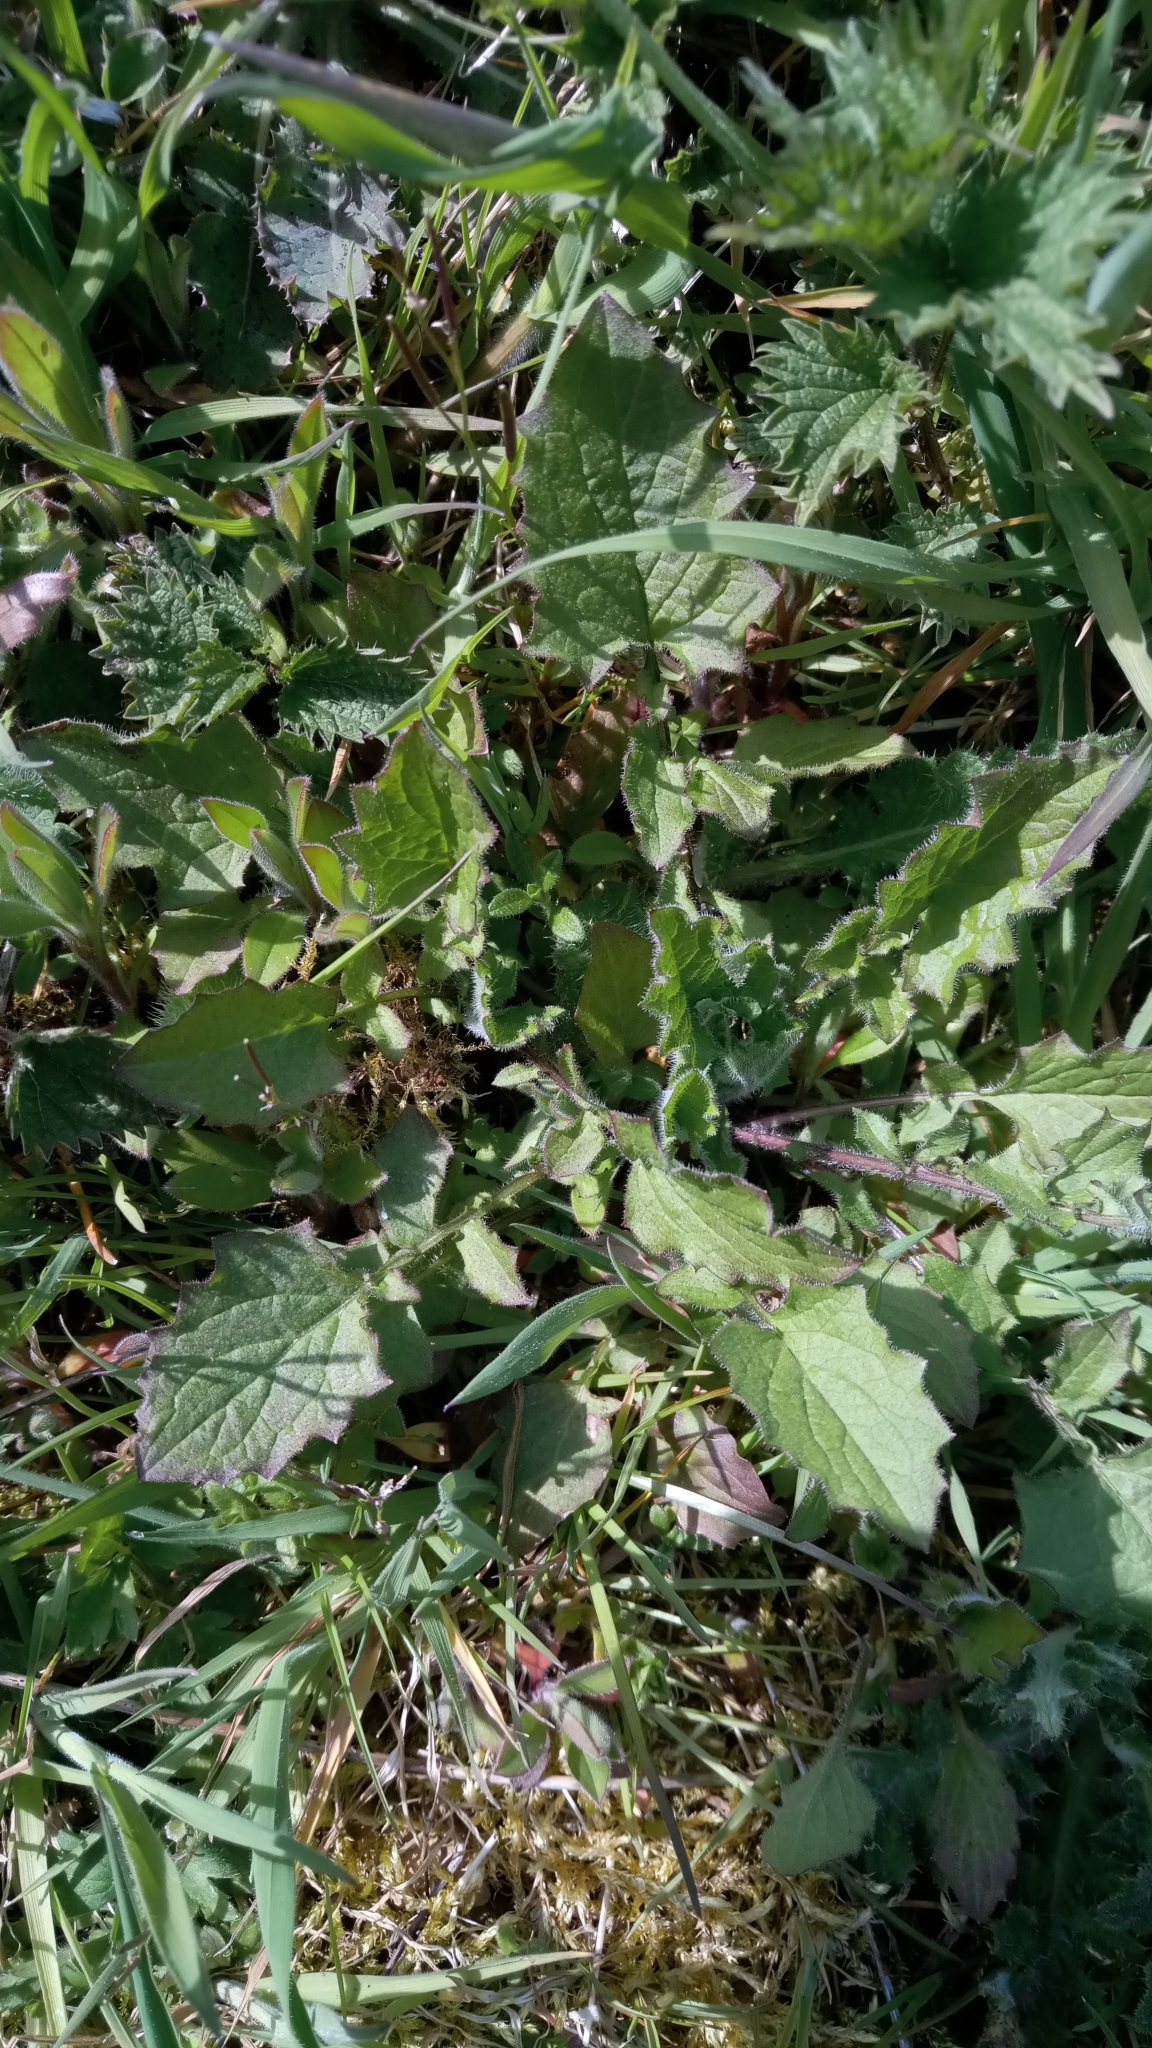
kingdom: Plantae
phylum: Tracheophyta
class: Magnoliopsida
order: Asterales
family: Asteraceae
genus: Lapsana
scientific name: Lapsana communis
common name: Nipplewort
